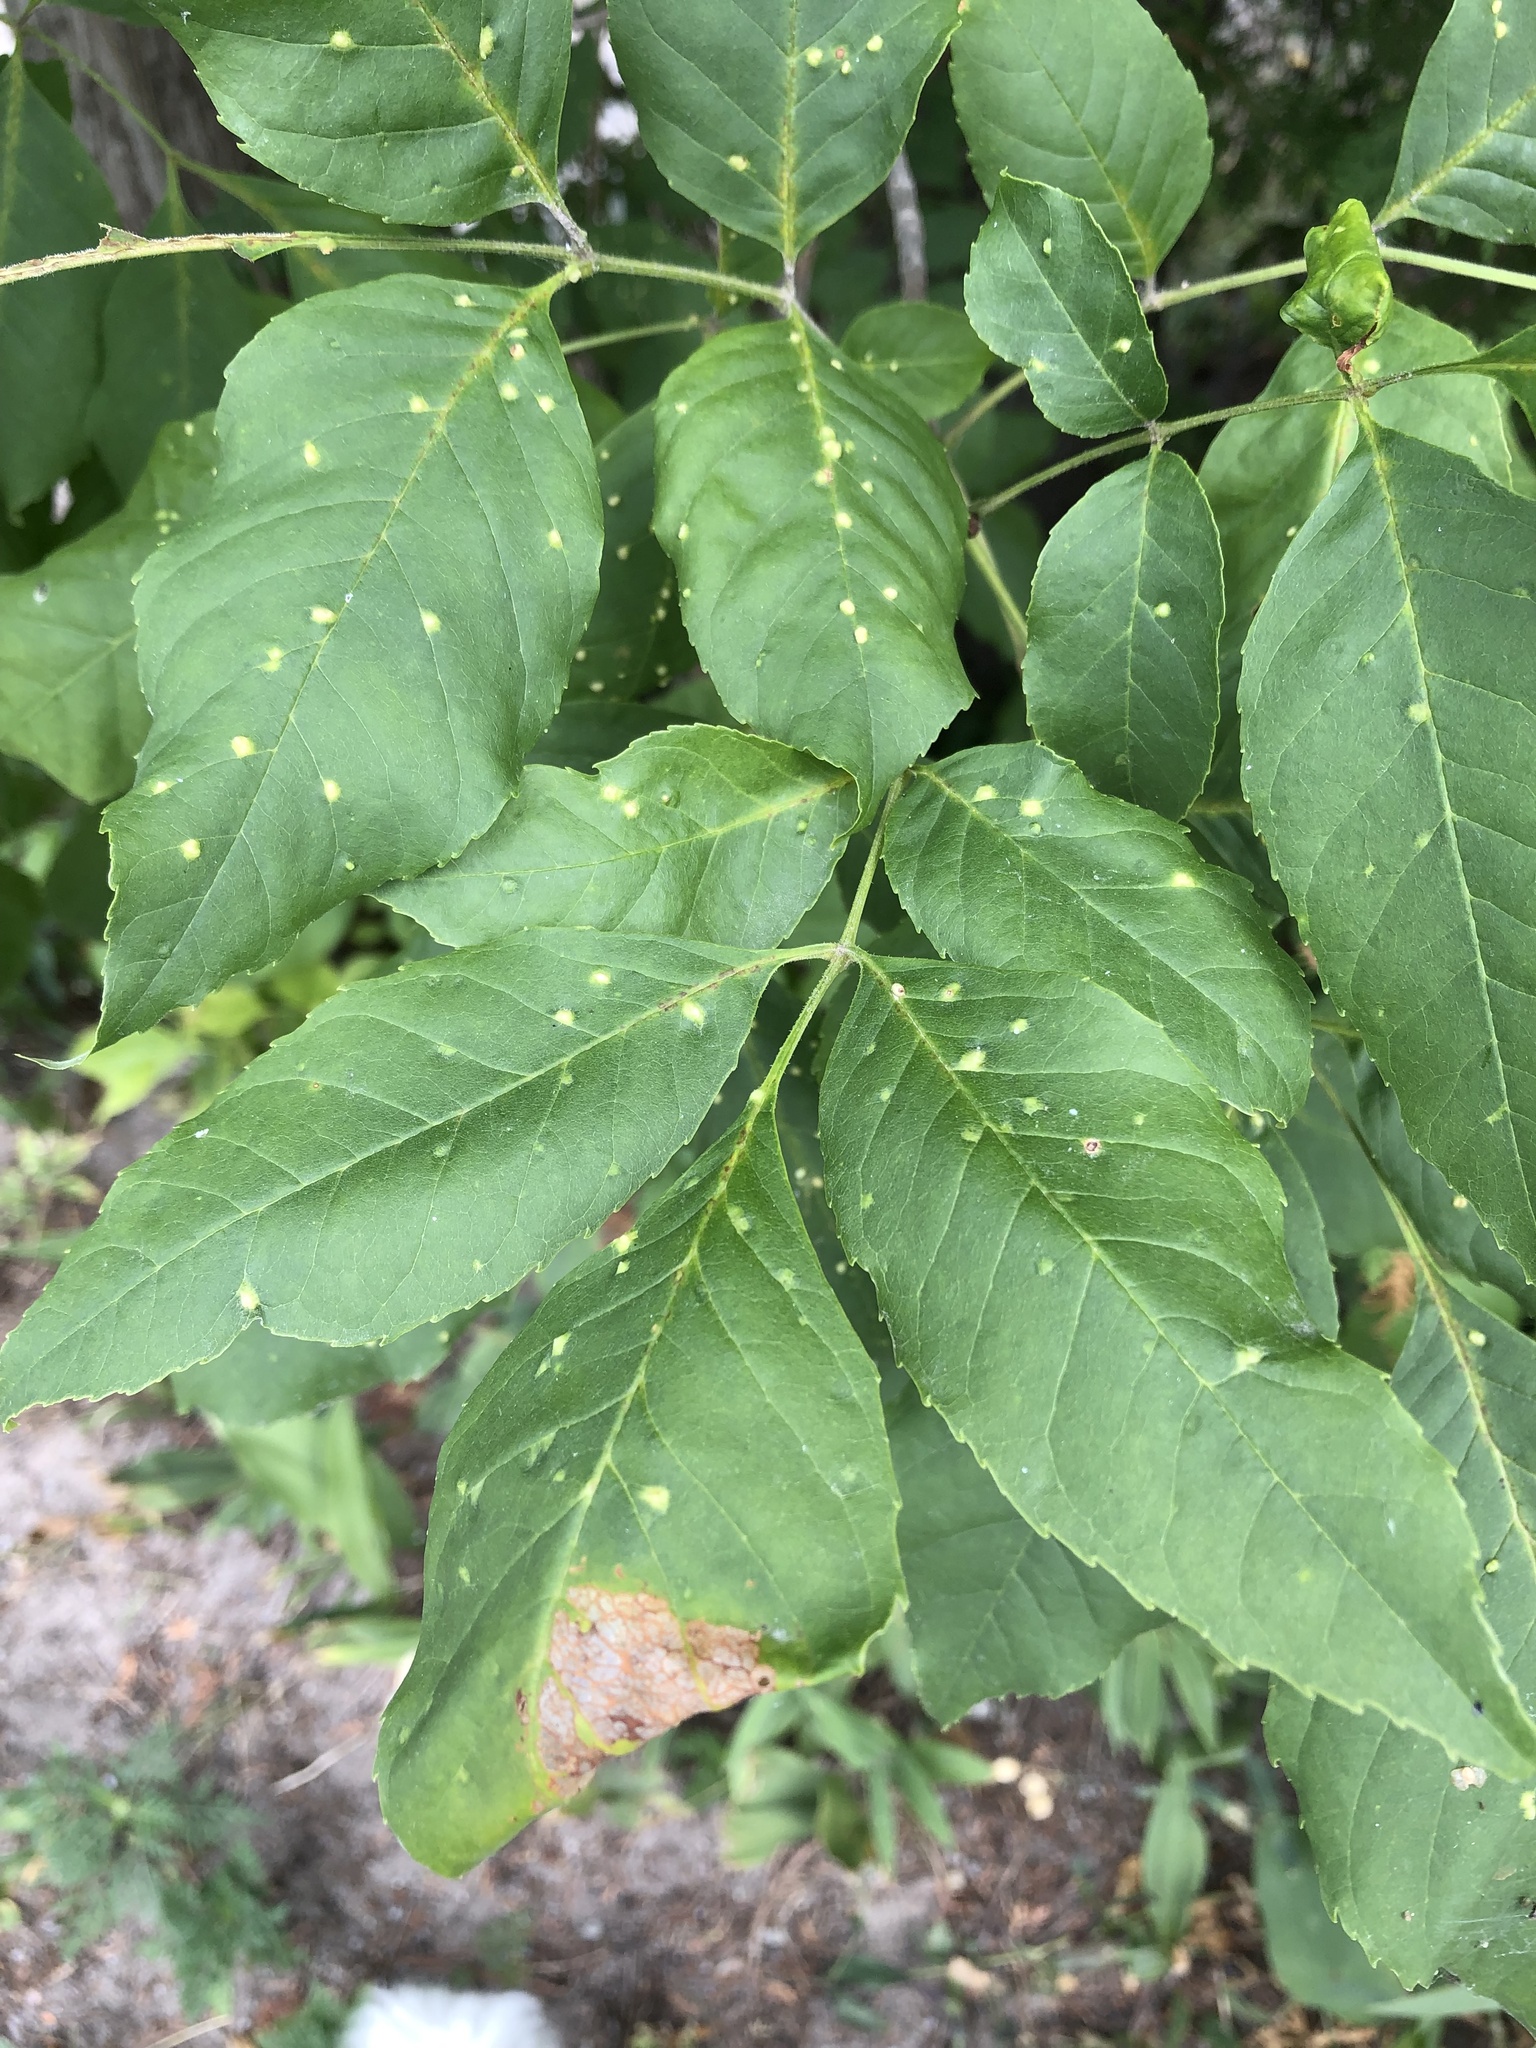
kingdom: Animalia
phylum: Arthropoda
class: Arachnida
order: Trombidiformes
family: Eriophyidae
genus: Aceria
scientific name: Aceria fraxinicola
